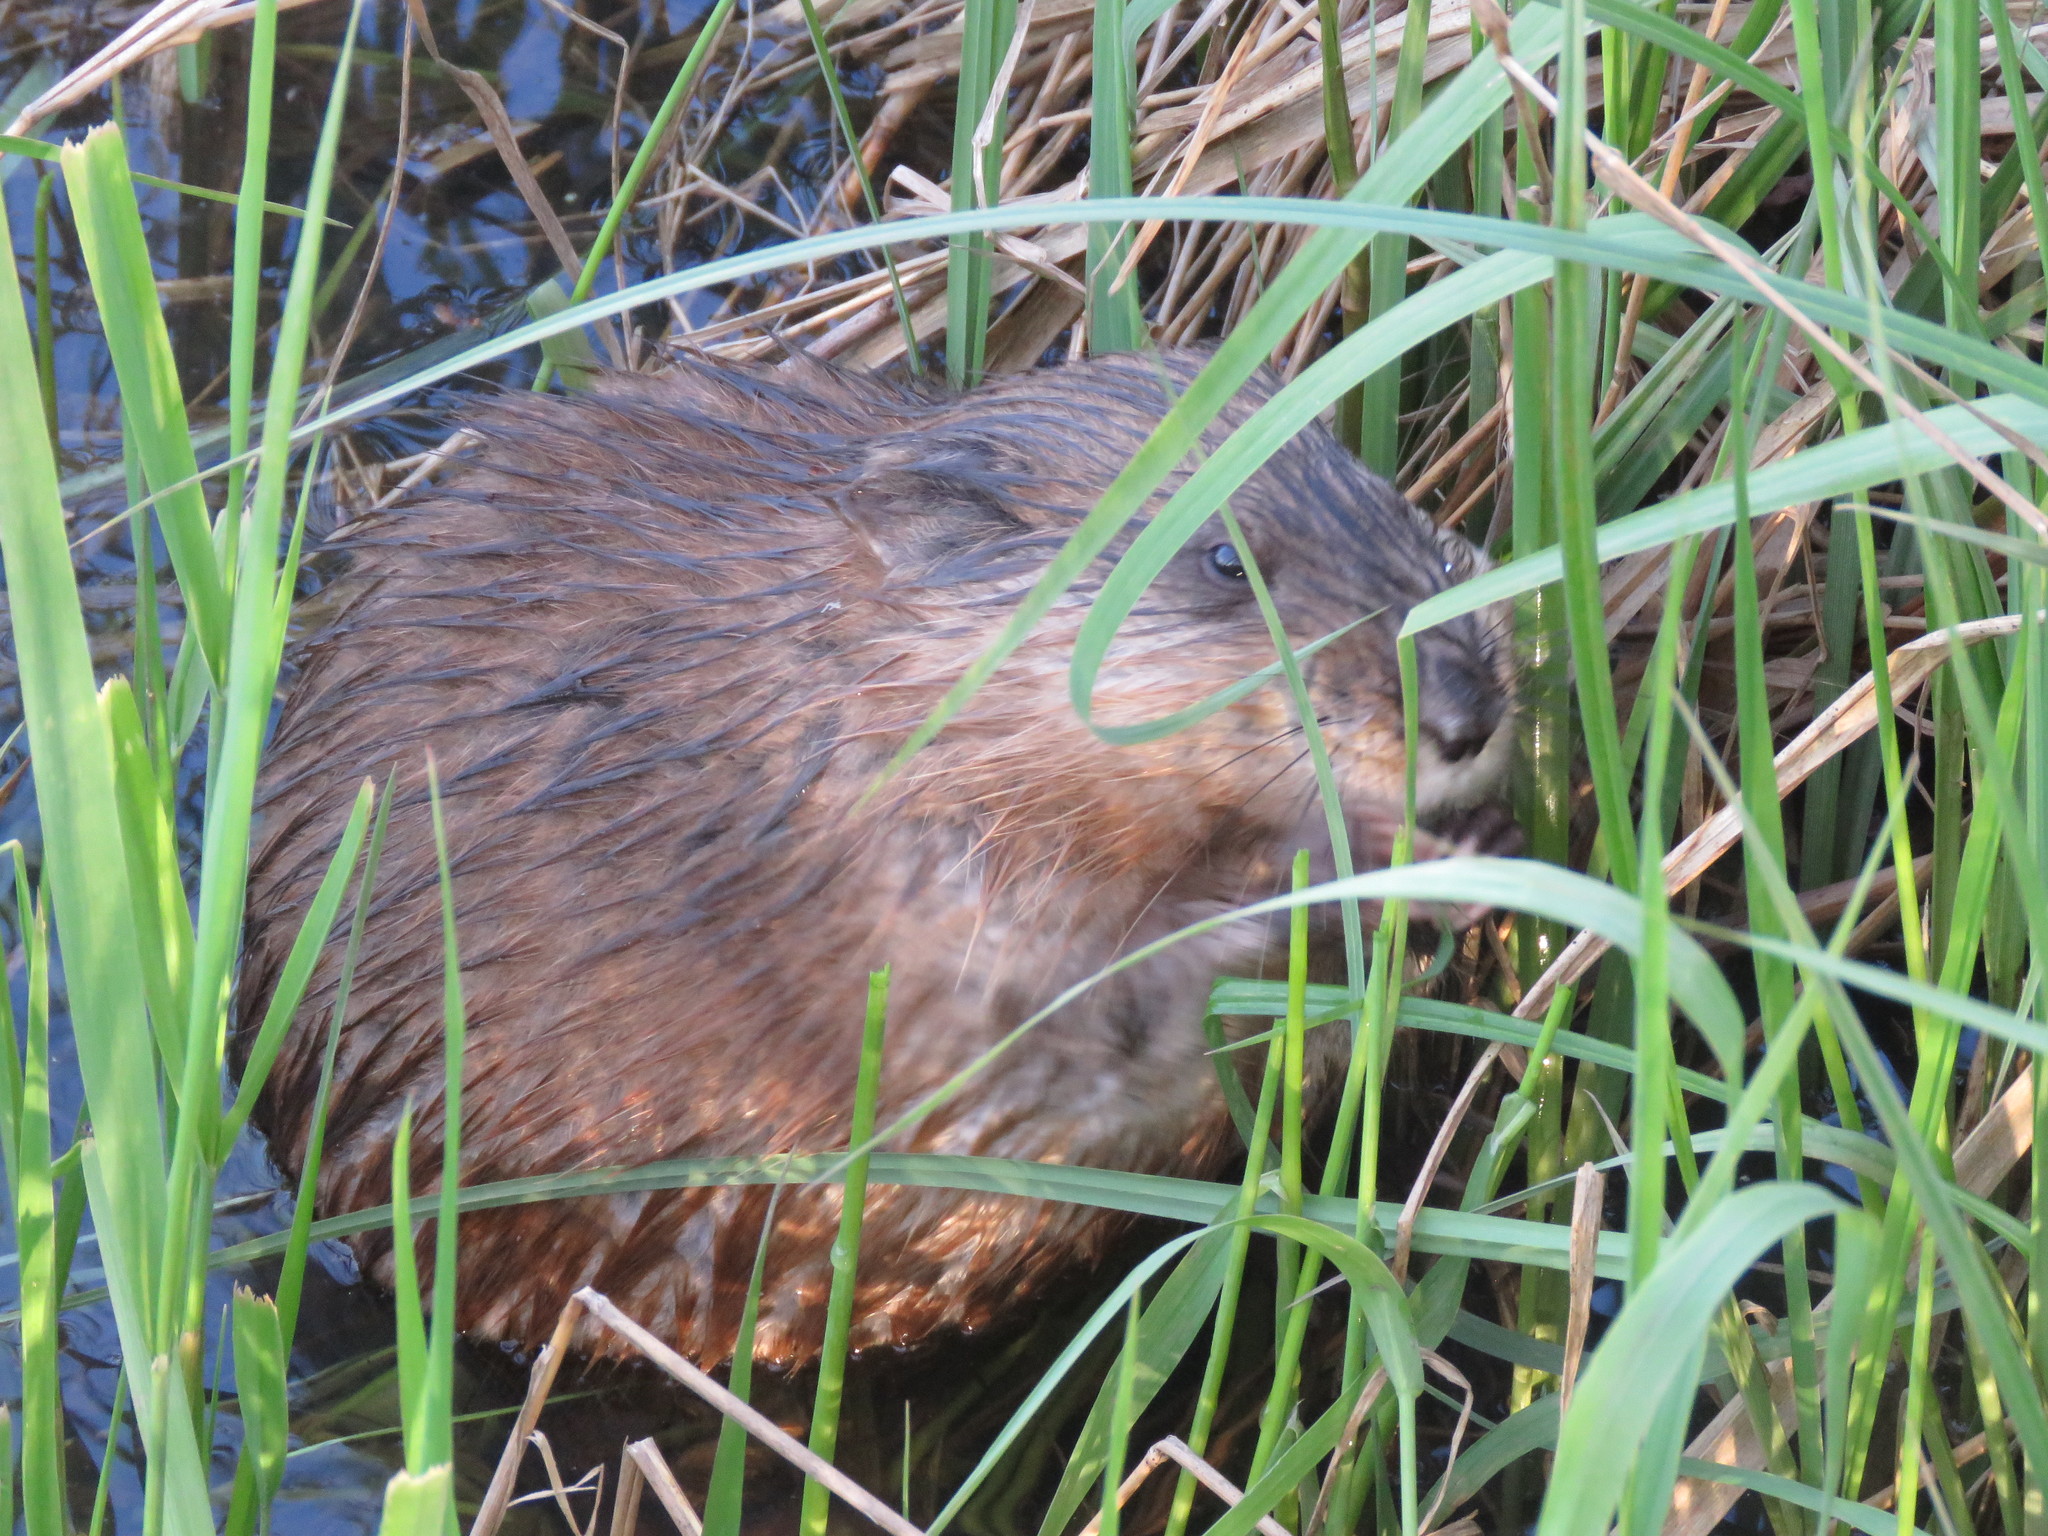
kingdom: Animalia
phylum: Chordata
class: Mammalia
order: Rodentia
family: Cricetidae
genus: Ondatra
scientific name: Ondatra zibethicus
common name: Muskrat
